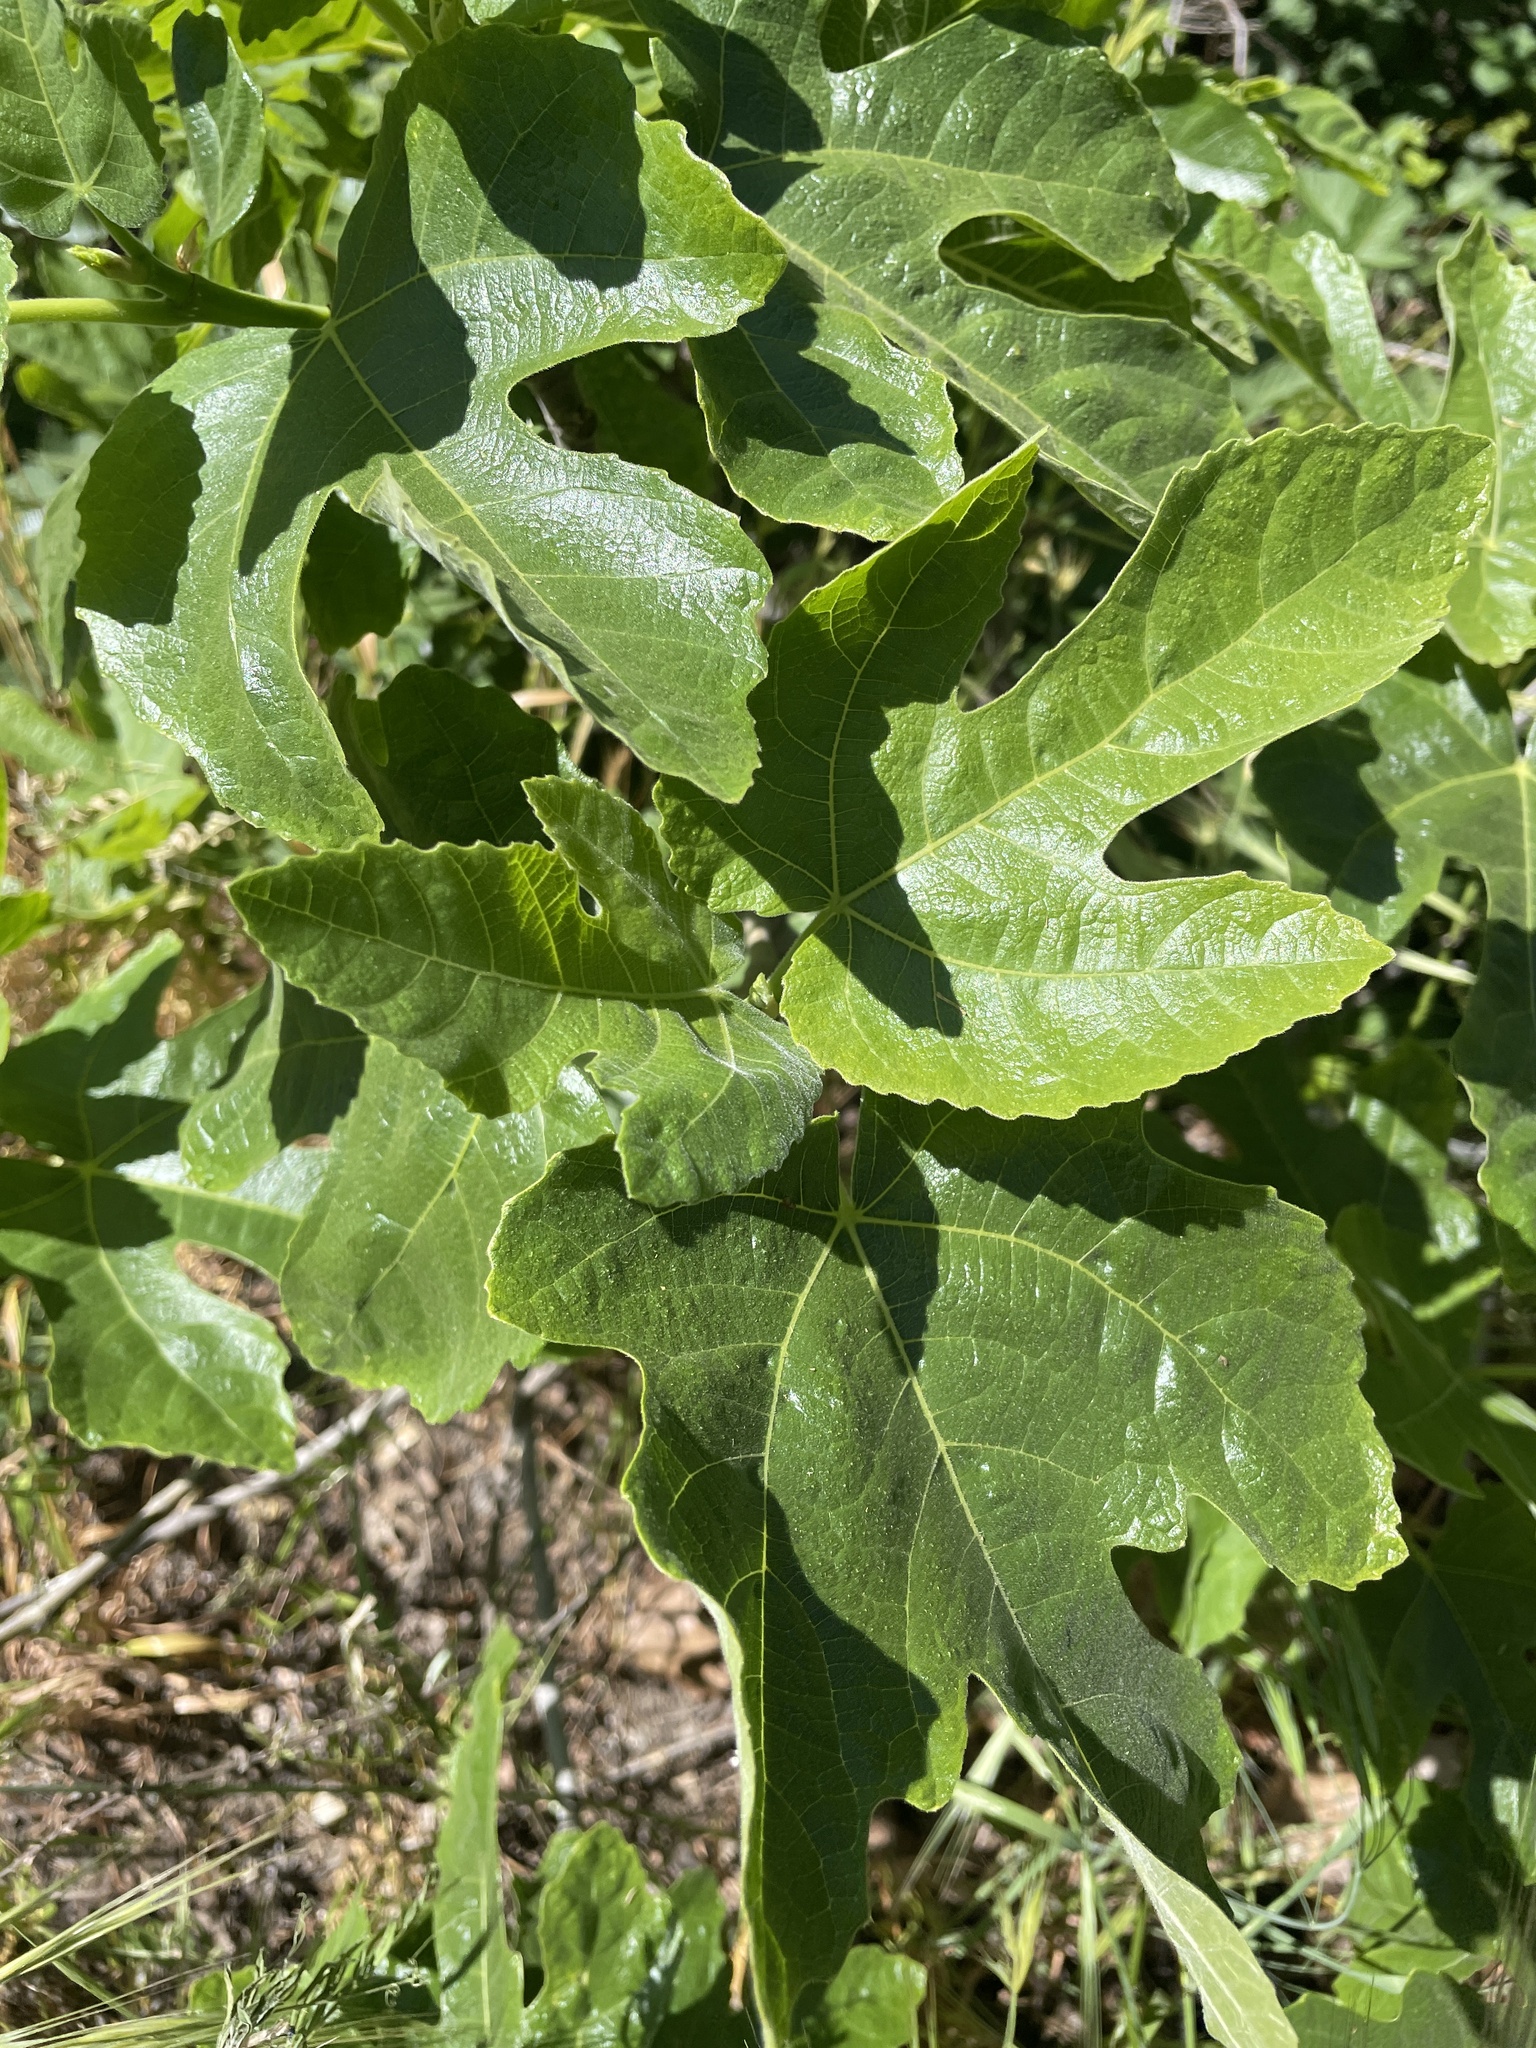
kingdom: Plantae
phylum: Tracheophyta
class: Magnoliopsida
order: Rosales
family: Moraceae
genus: Ficus
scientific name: Ficus carica
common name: Fig
